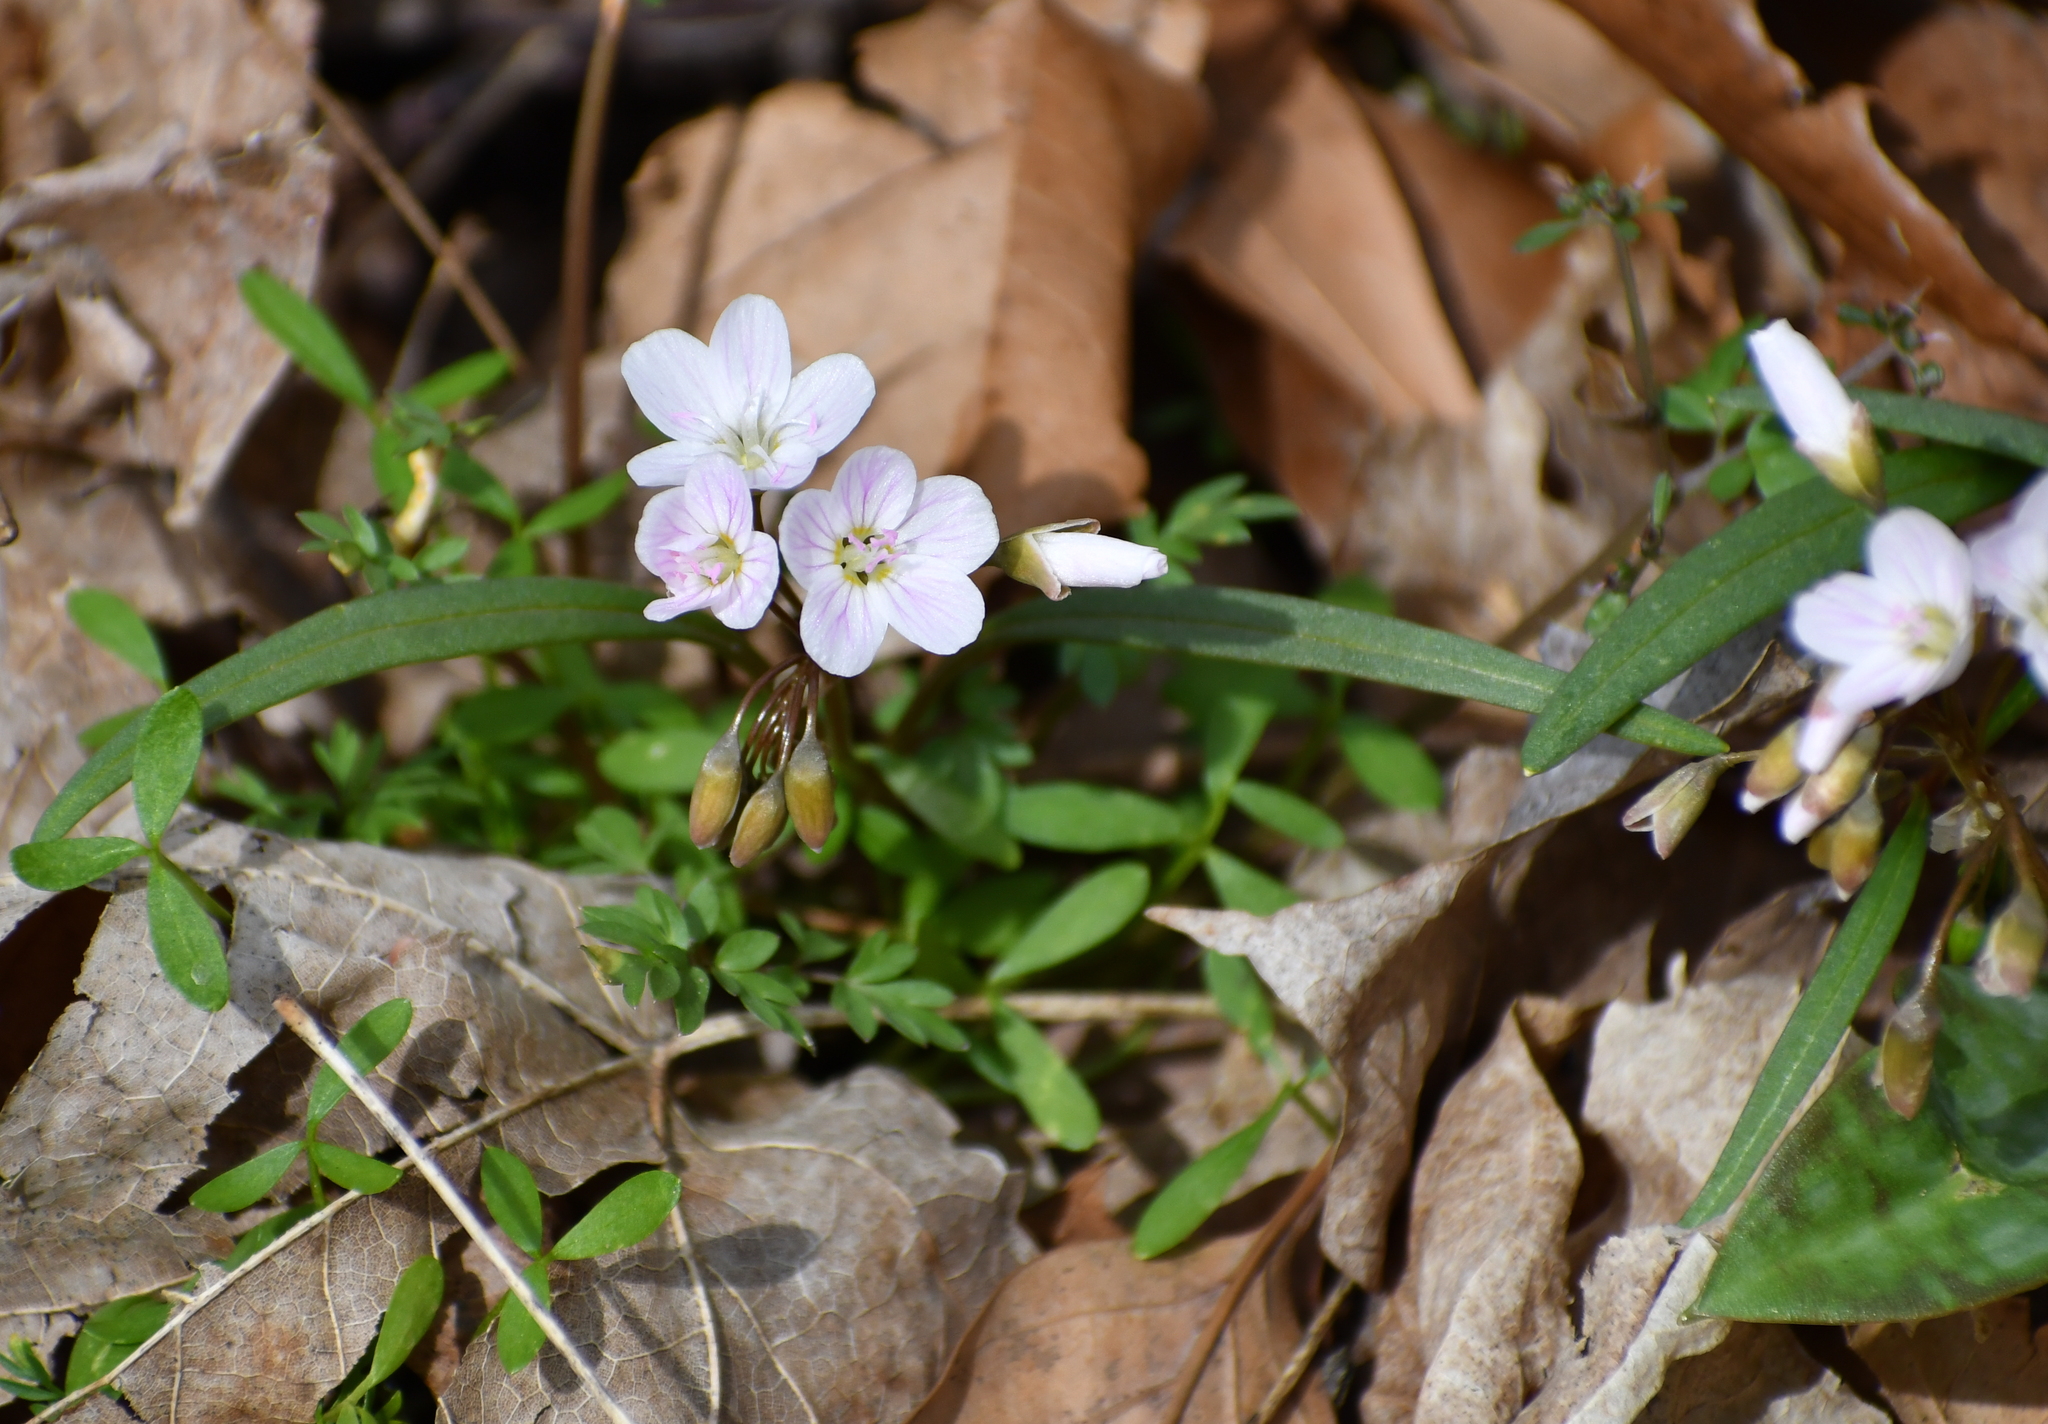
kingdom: Plantae
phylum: Tracheophyta
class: Magnoliopsida
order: Caryophyllales
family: Montiaceae
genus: Claytonia
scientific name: Claytonia virginica
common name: Virginia springbeauty
